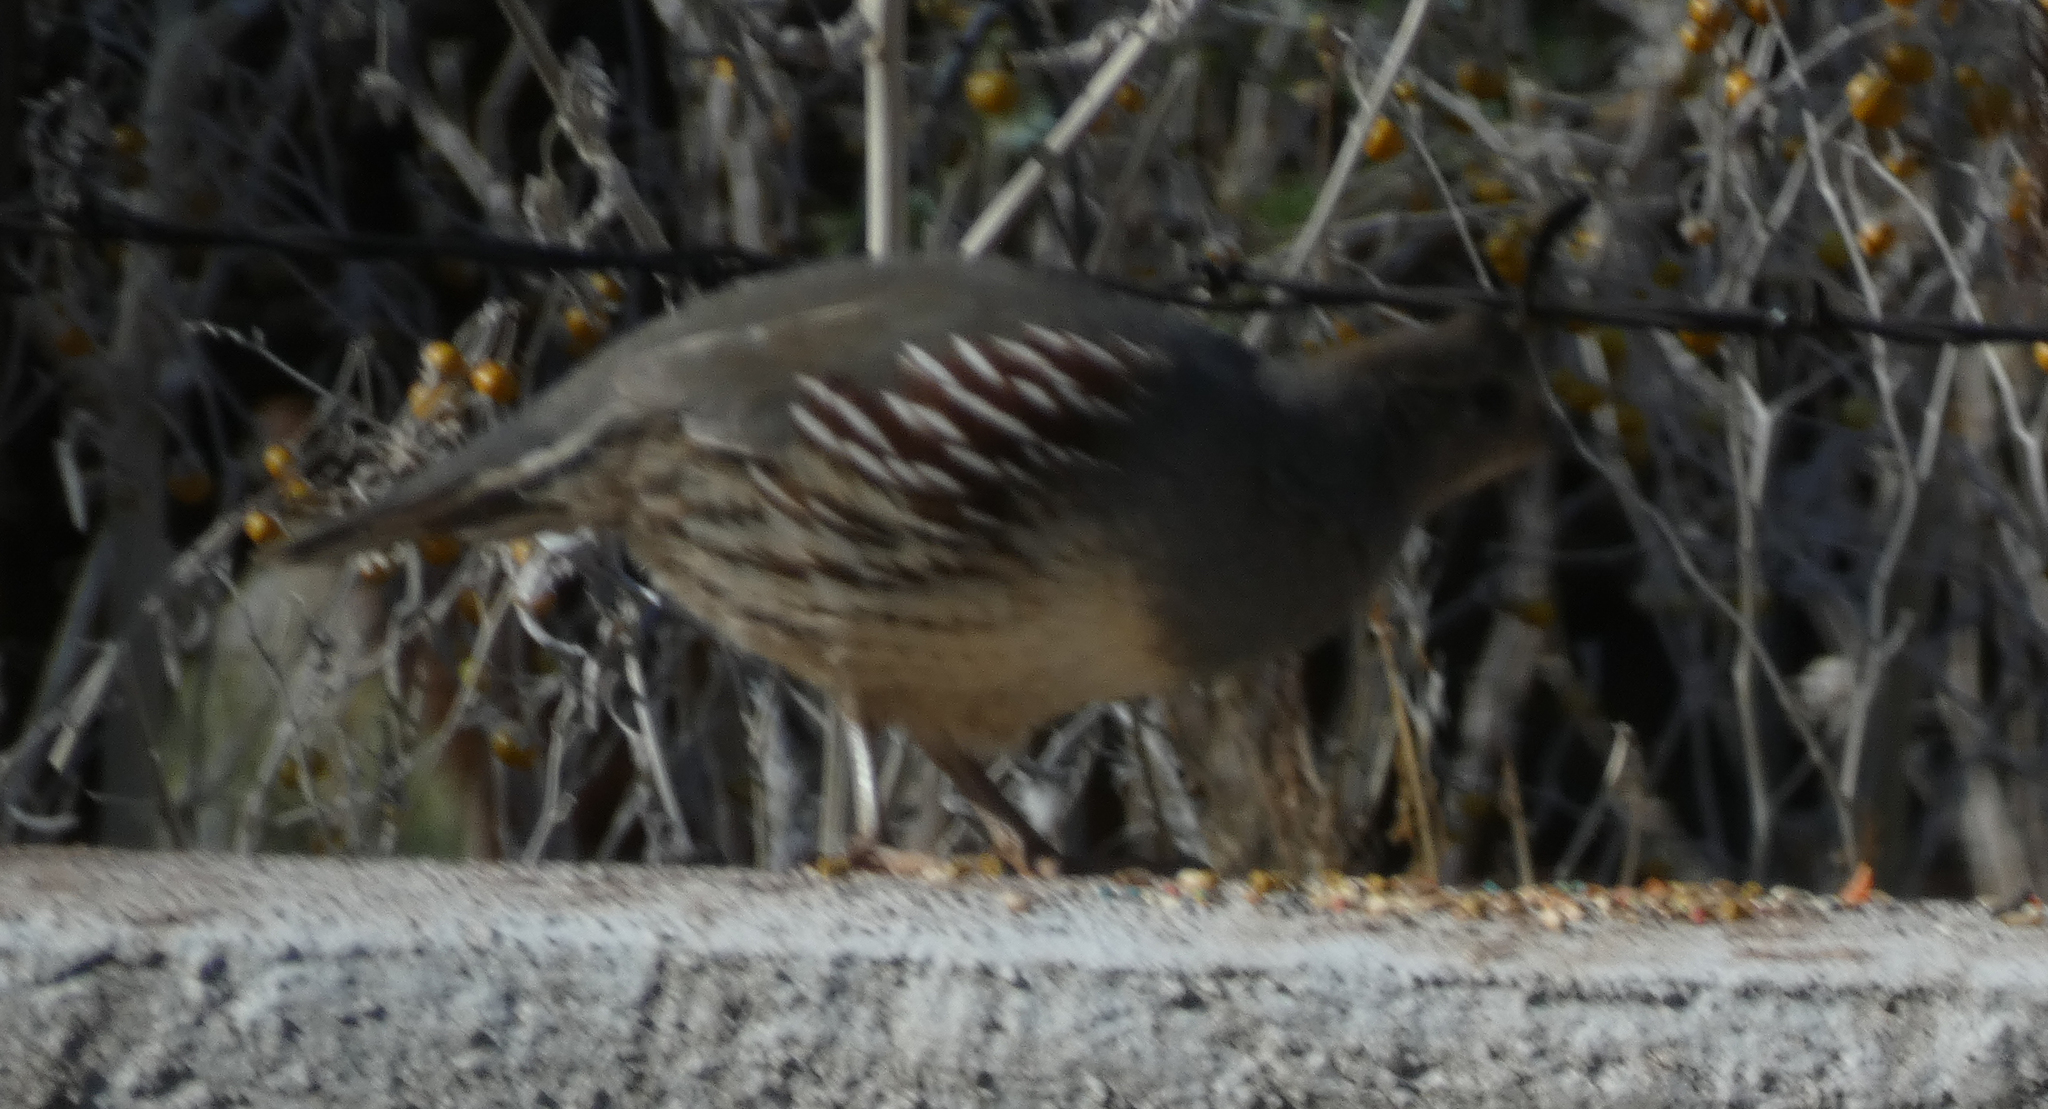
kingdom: Animalia
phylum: Chordata
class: Aves
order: Galliformes
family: Odontophoridae
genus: Callipepla
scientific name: Callipepla gambelii
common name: Gambel's quail
